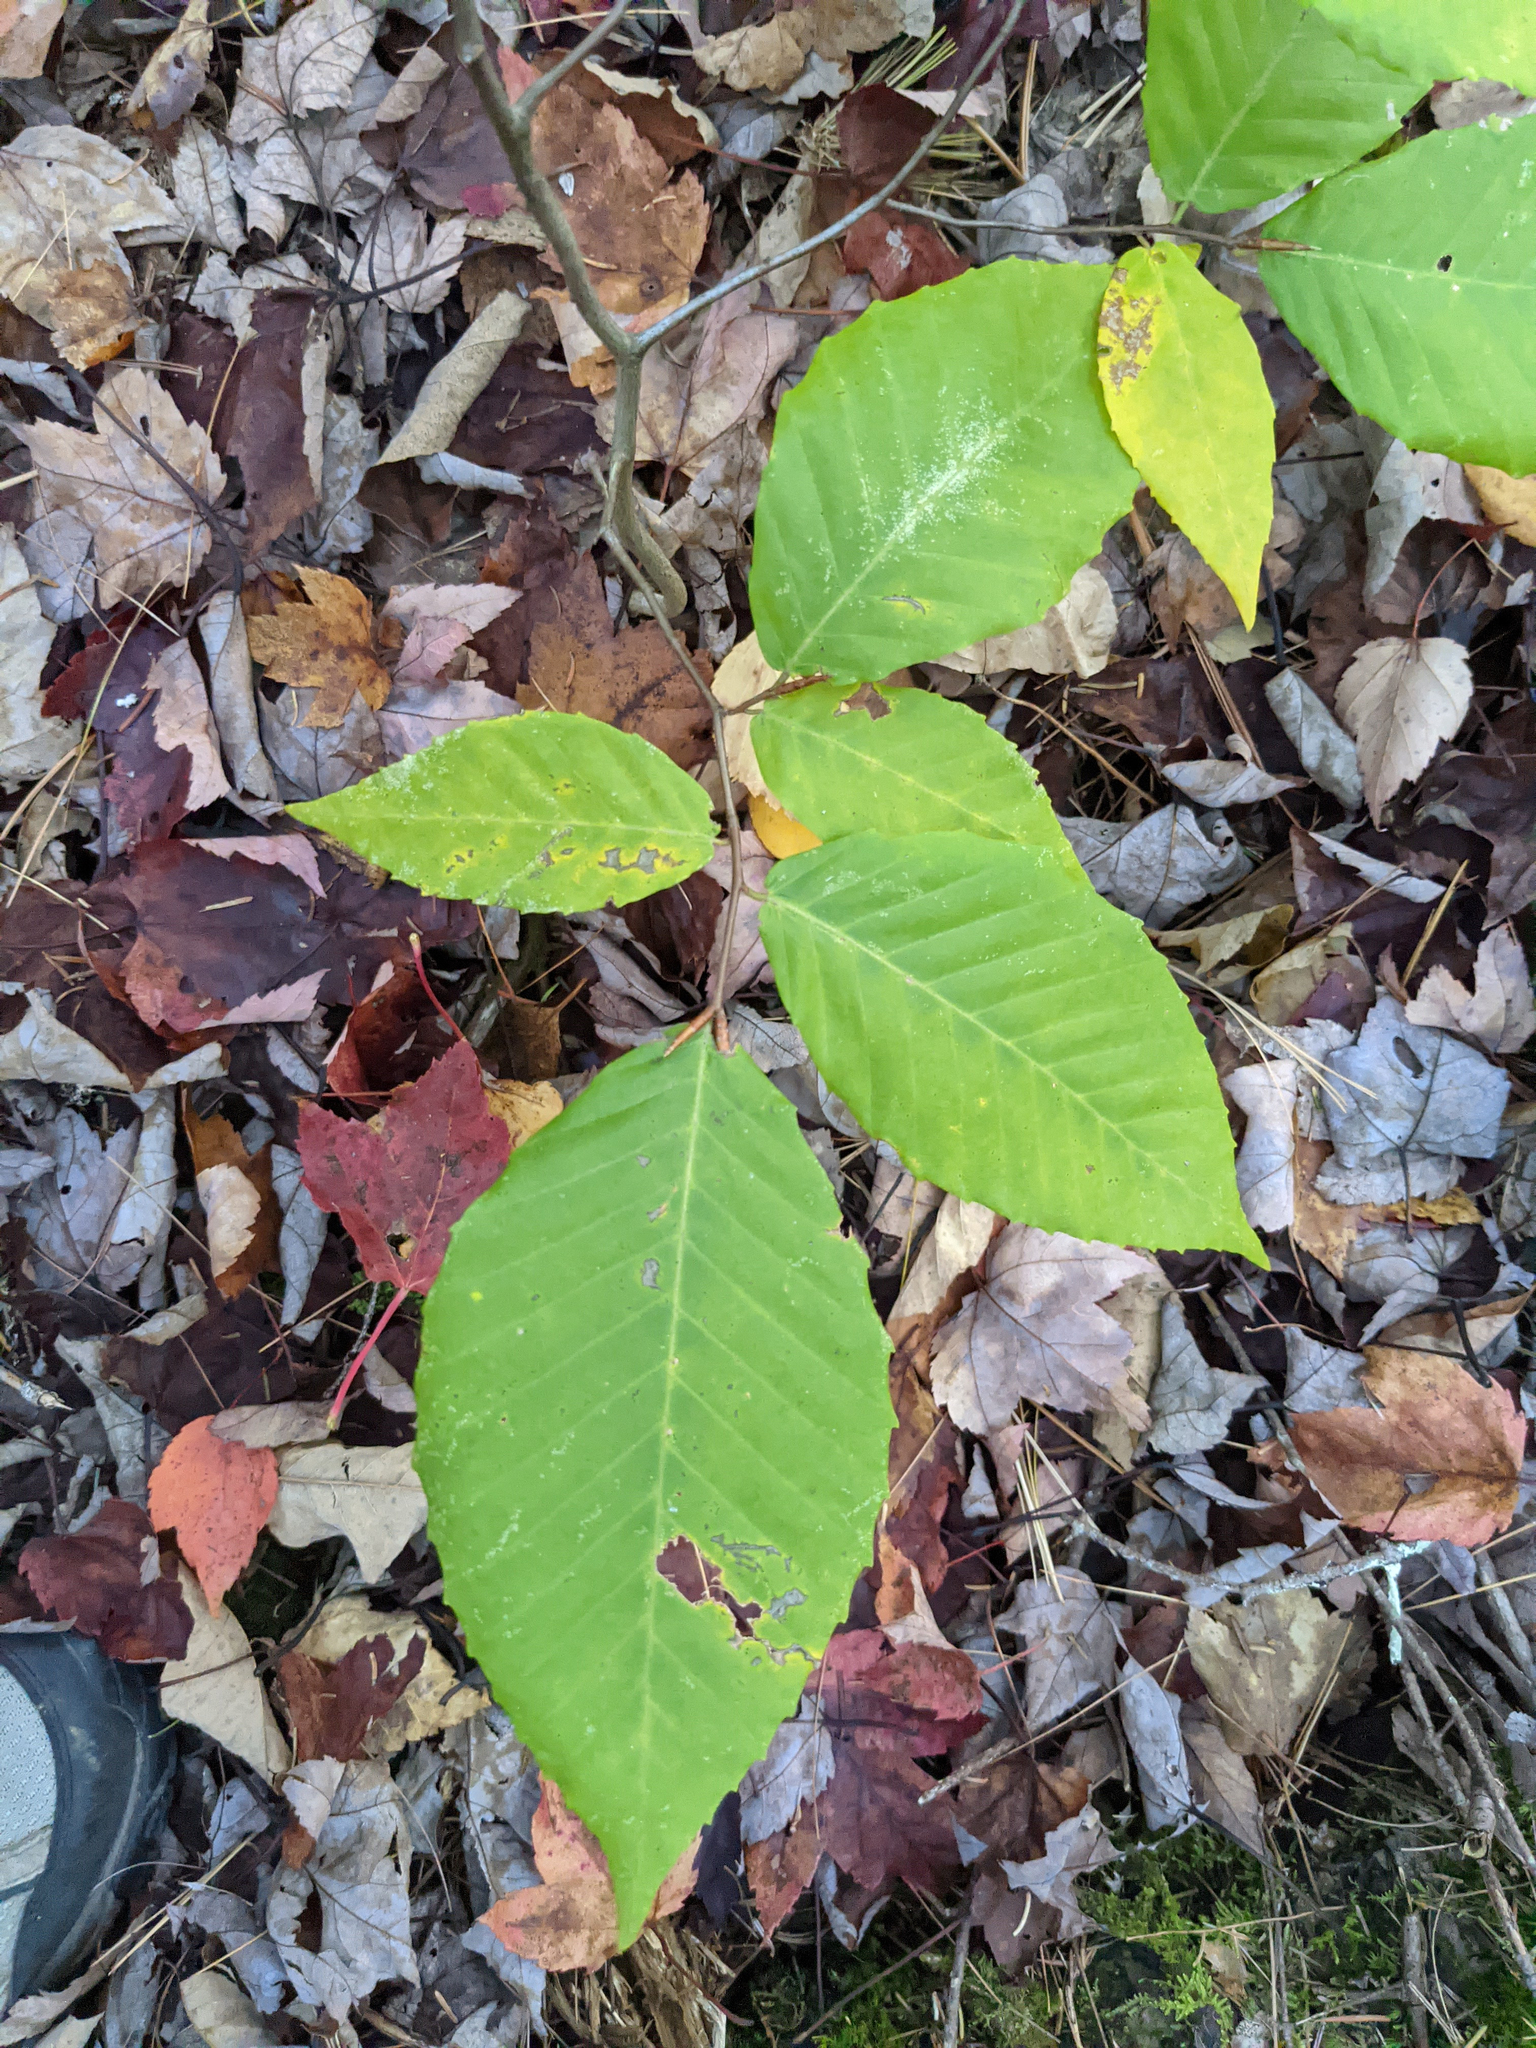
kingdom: Plantae
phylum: Tracheophyta
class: Magnoliopsida
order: Fagales
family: Fagaceae
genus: Fagus
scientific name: Fagus grandifolia
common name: American beech
